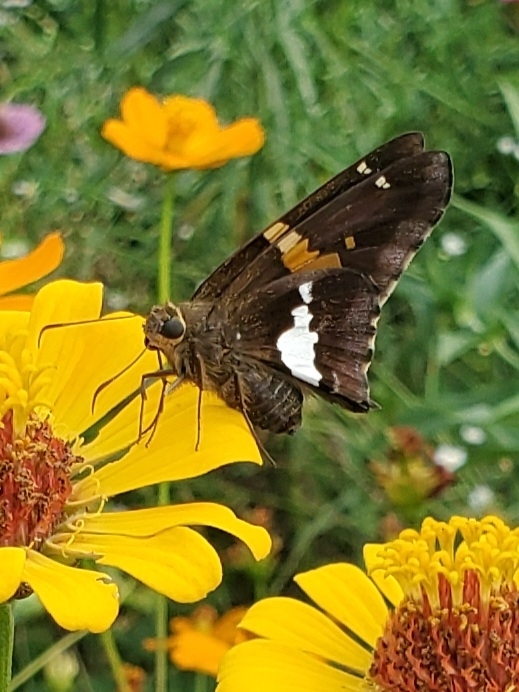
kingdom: Animalia
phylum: Arthropoda
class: Insecta
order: Lepidoptera
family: Hesperiidae
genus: Epargyreus
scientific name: Epargyreus clarus
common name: Silver-spotted skipper
